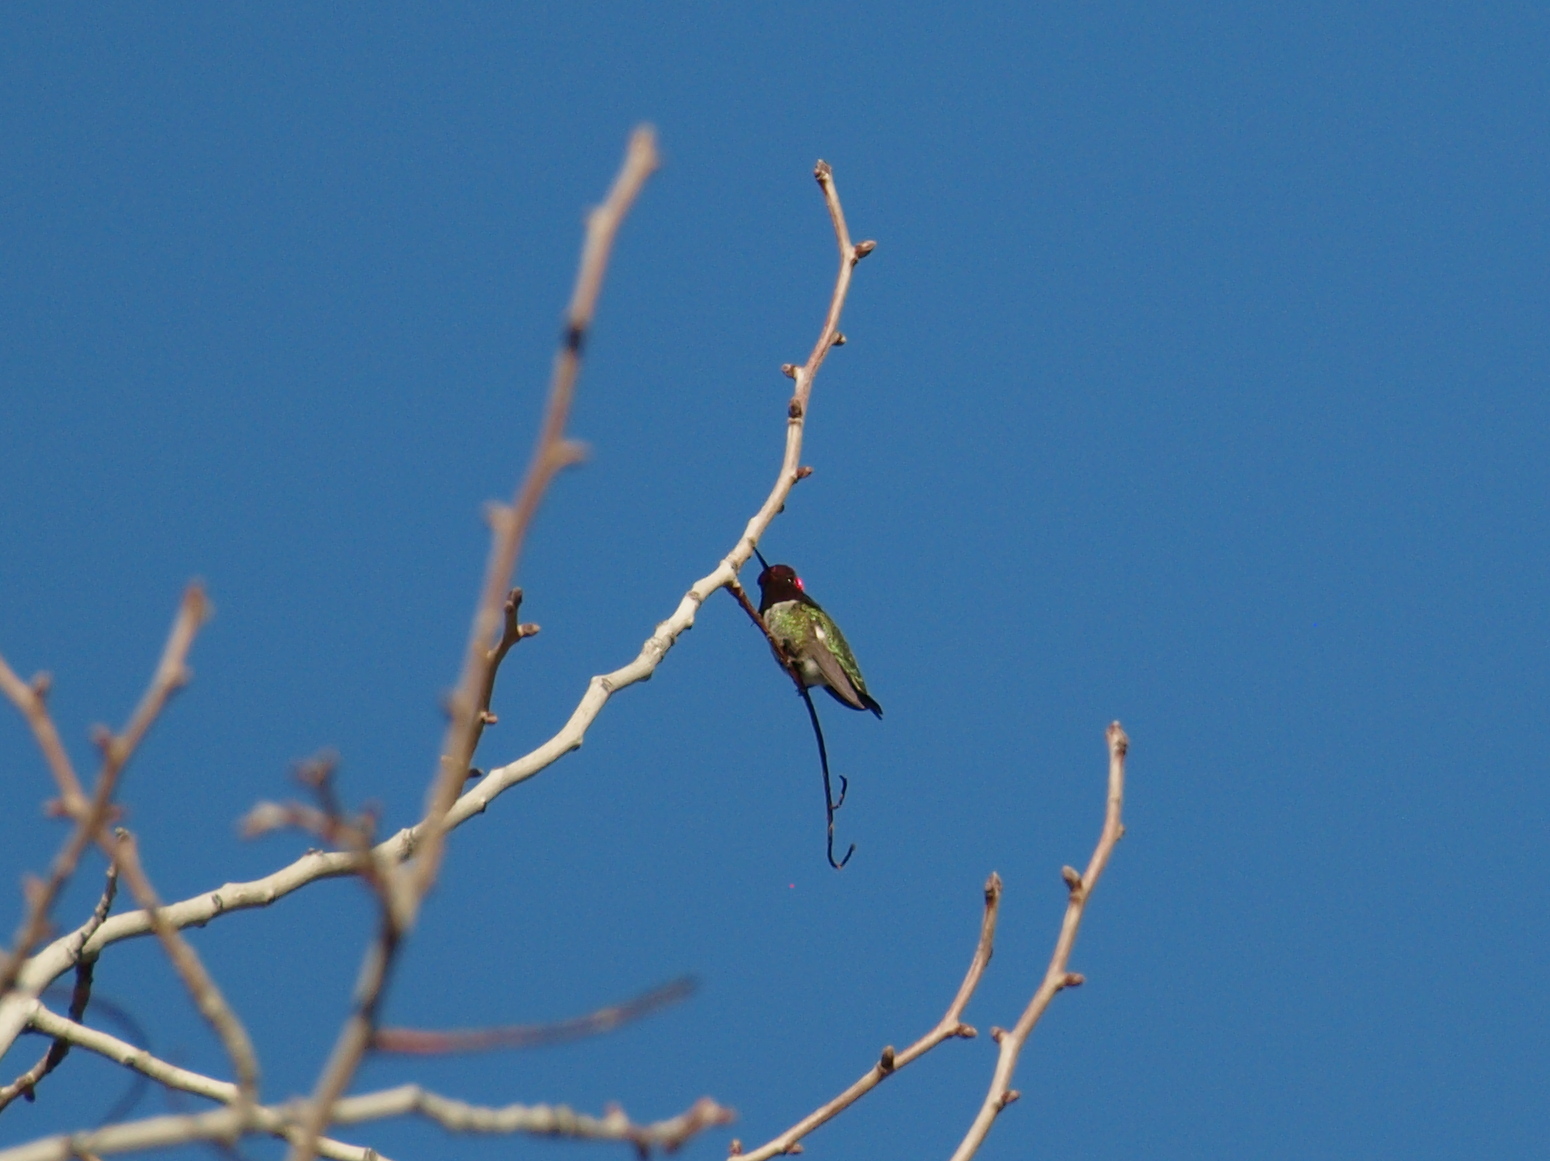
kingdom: Animalia
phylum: Chordata
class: Aves
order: Apodiformes
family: Trochilidae
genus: Calypte
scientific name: Calypte anna
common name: Anna's hummingbird
